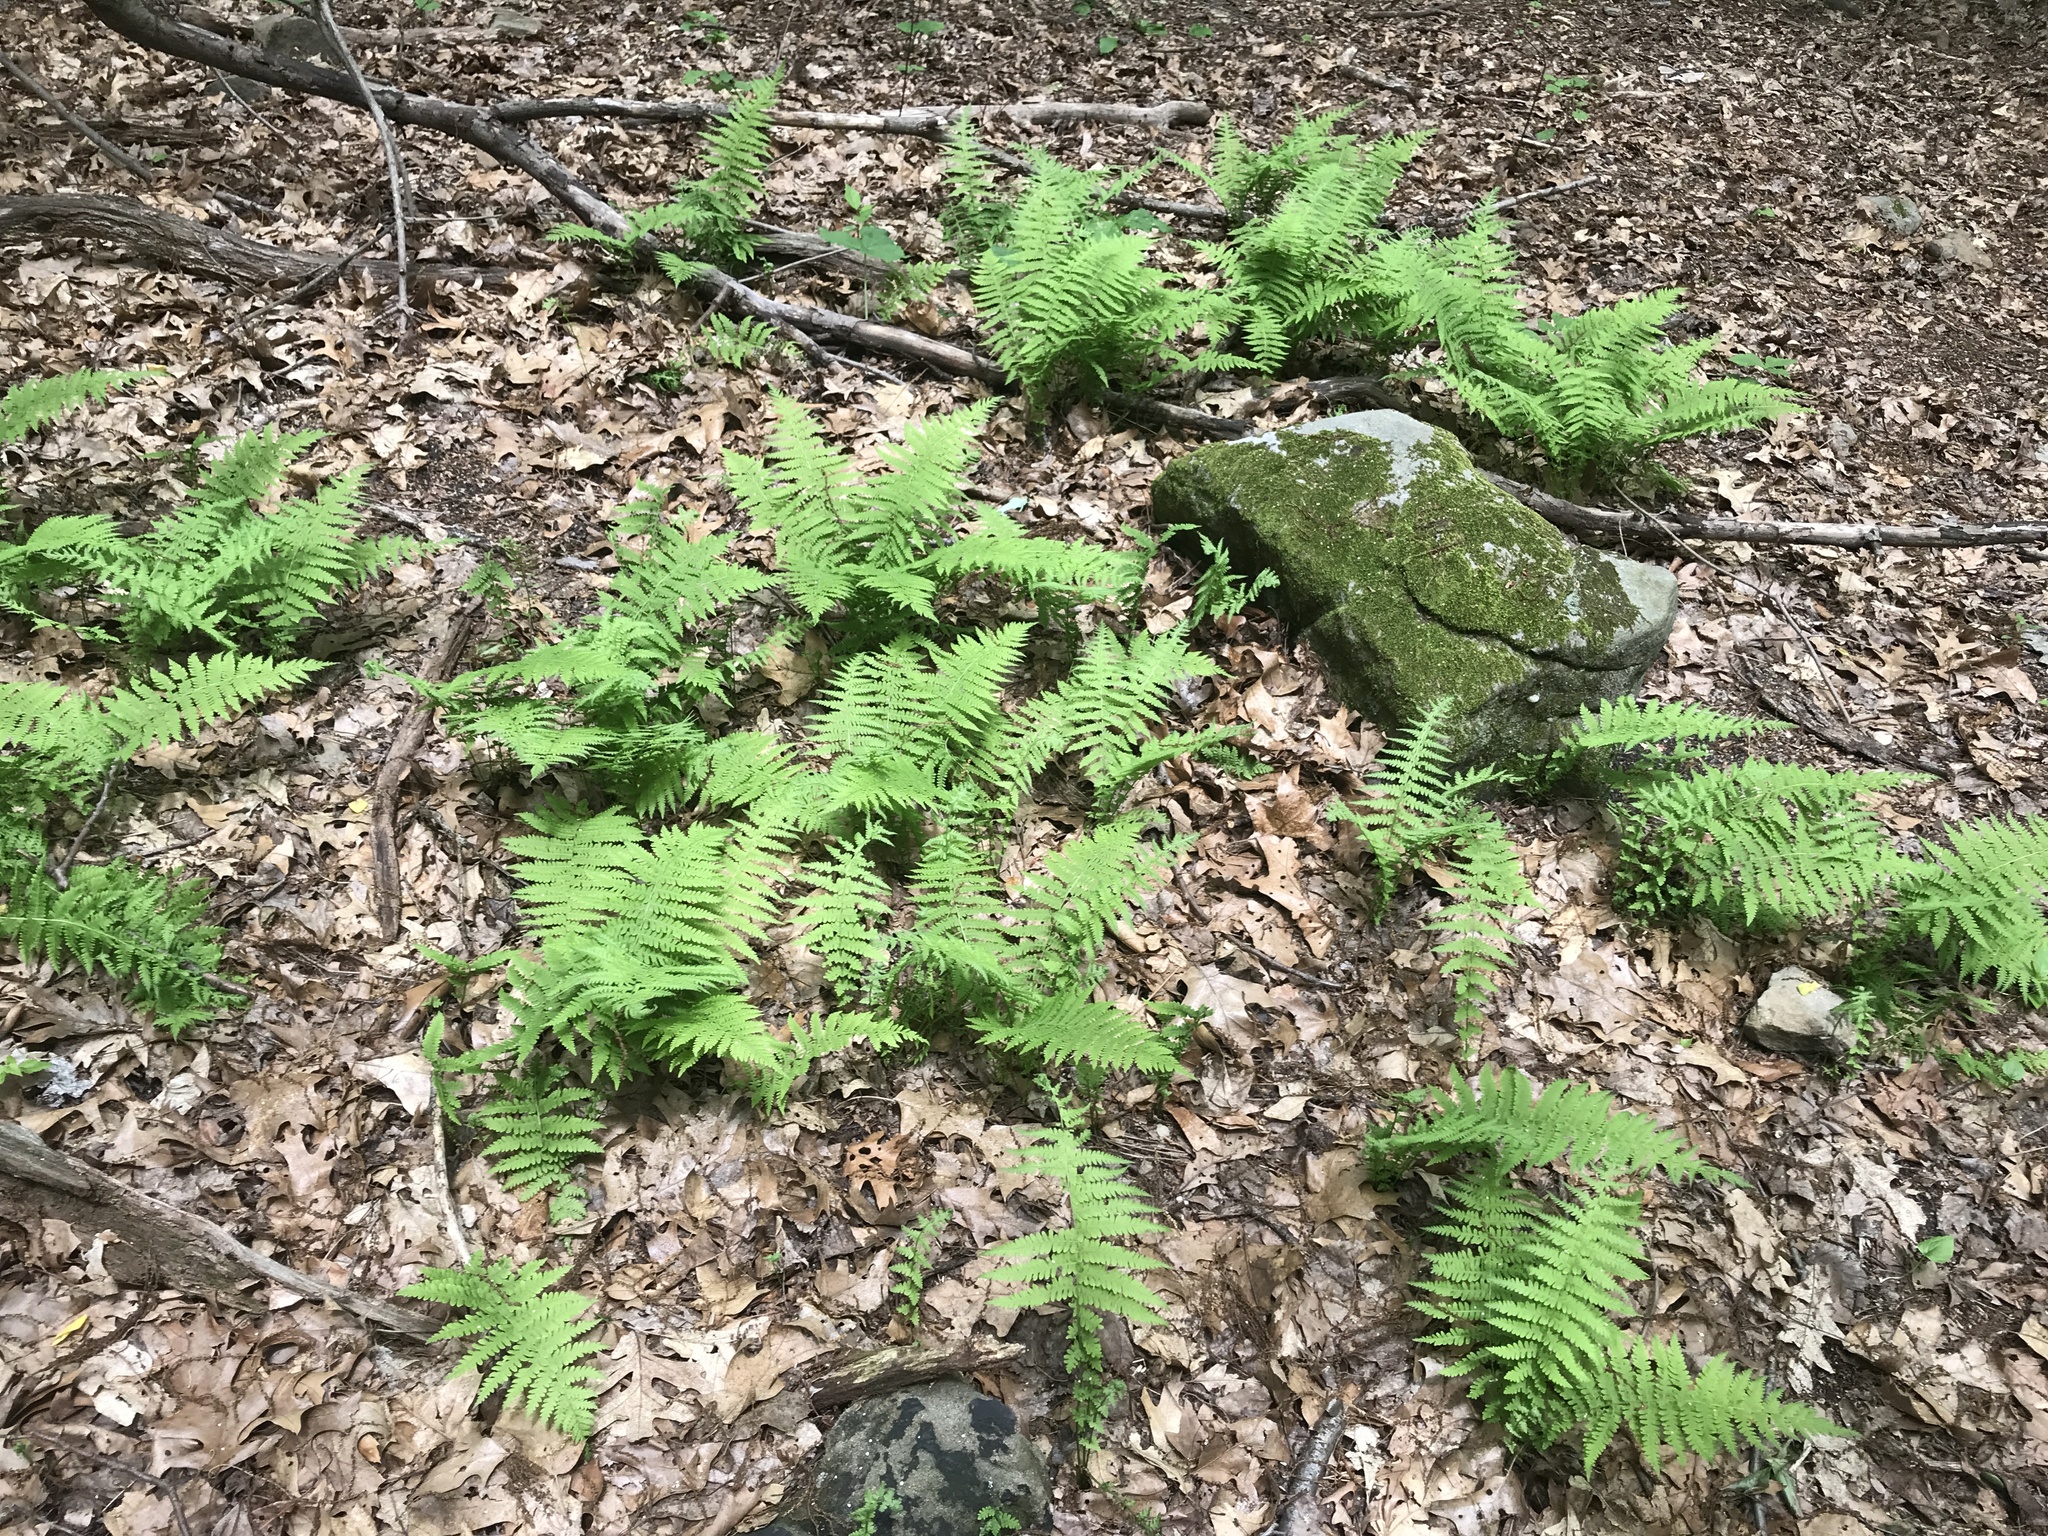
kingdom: Plantae
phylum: Tracheophyta
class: Polypodiopsida
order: Polypodiales
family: Thelypteridaceae
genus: Amauropelta
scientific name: Amauropelta noveboracensis
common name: New york fern
